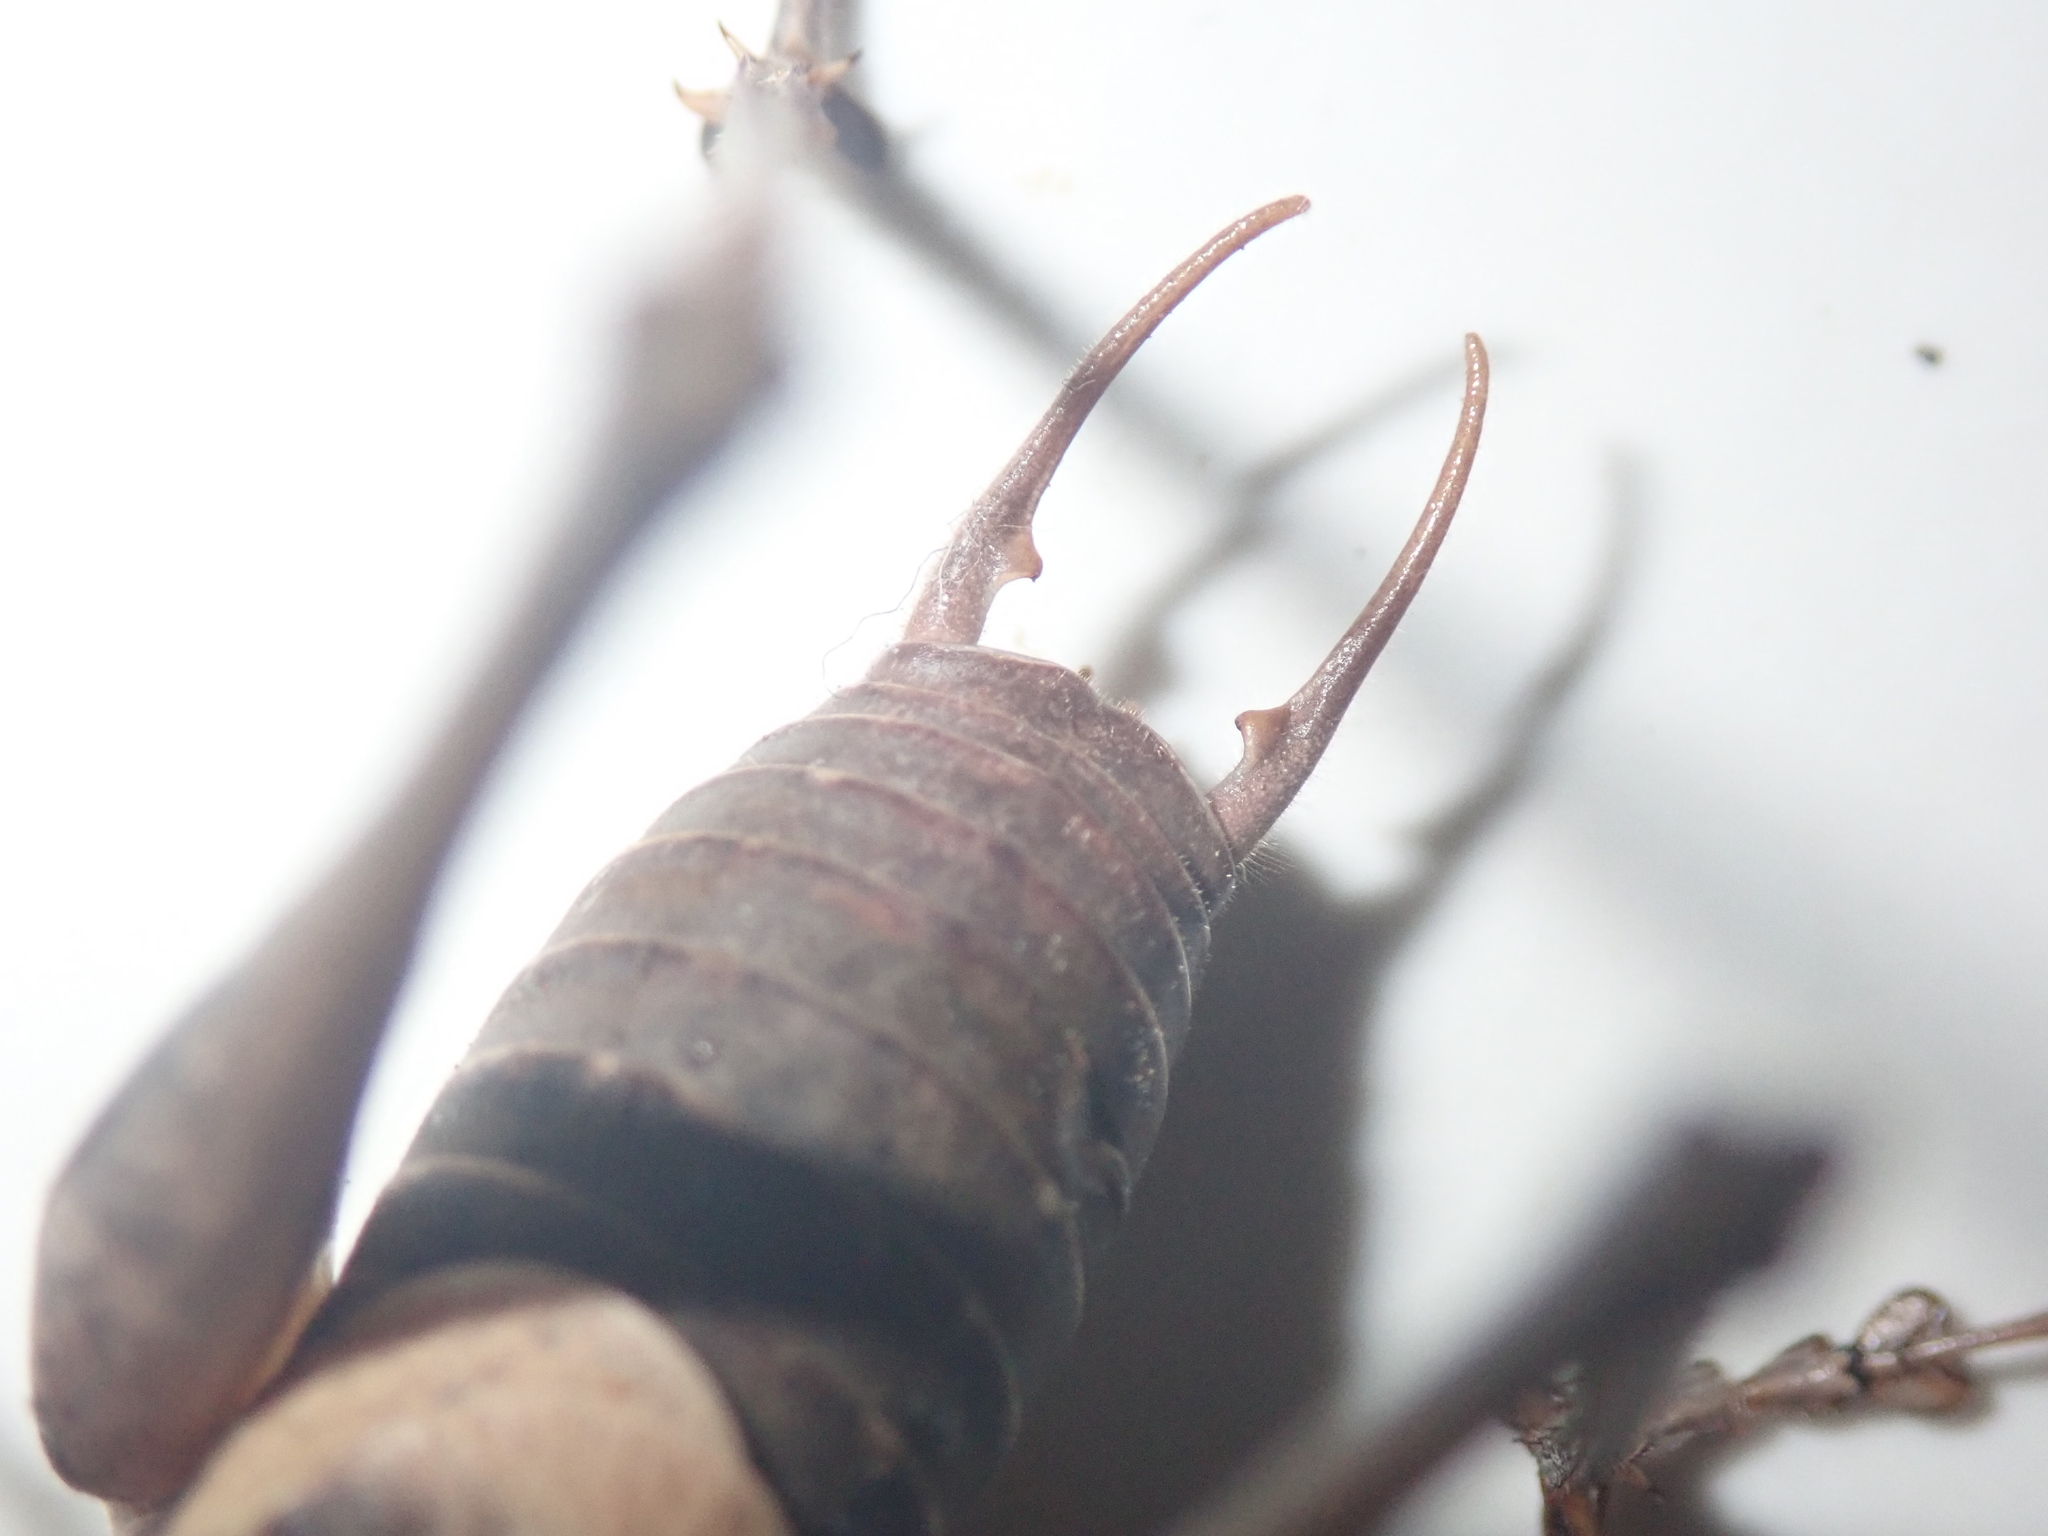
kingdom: Animalia
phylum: Arthropoda
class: Insecta
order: Orthoptera
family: Tettigoniidae
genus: Pholidoptera
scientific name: Pholidoptera dalmatica
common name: Dalmatian dark bush-cricket
